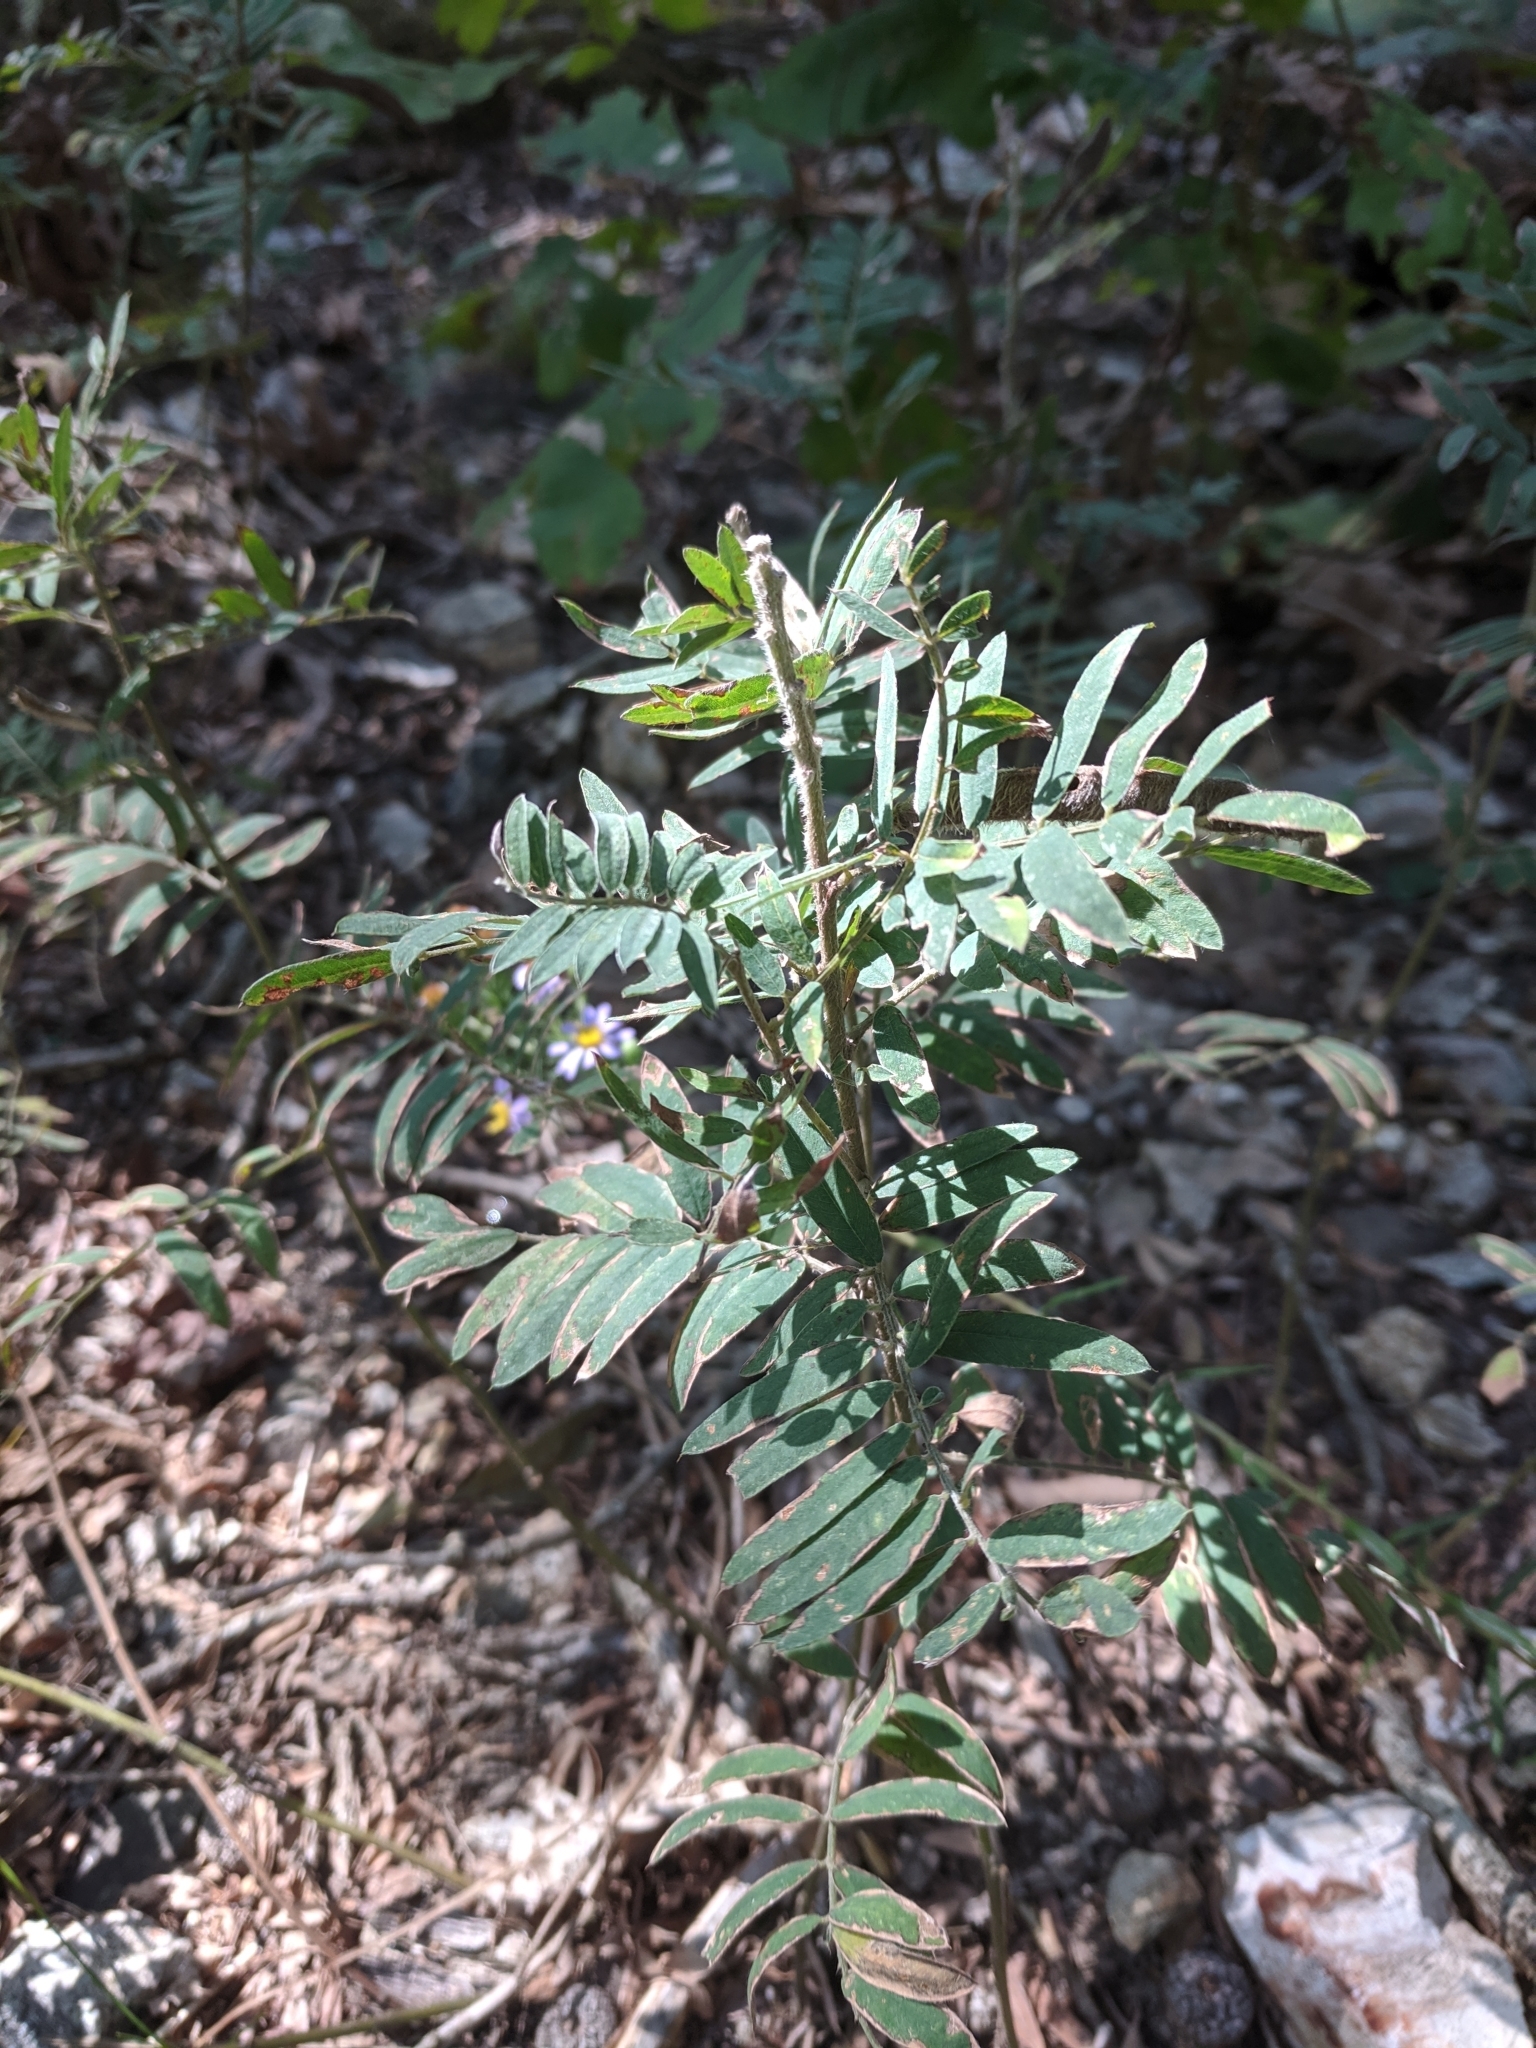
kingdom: Plantae
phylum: Tracheophyta
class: Magnoliopsida
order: Fabales
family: Fabaceae
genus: Tephrosia
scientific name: Tephrosia virginiana
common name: Rabbit-pea
